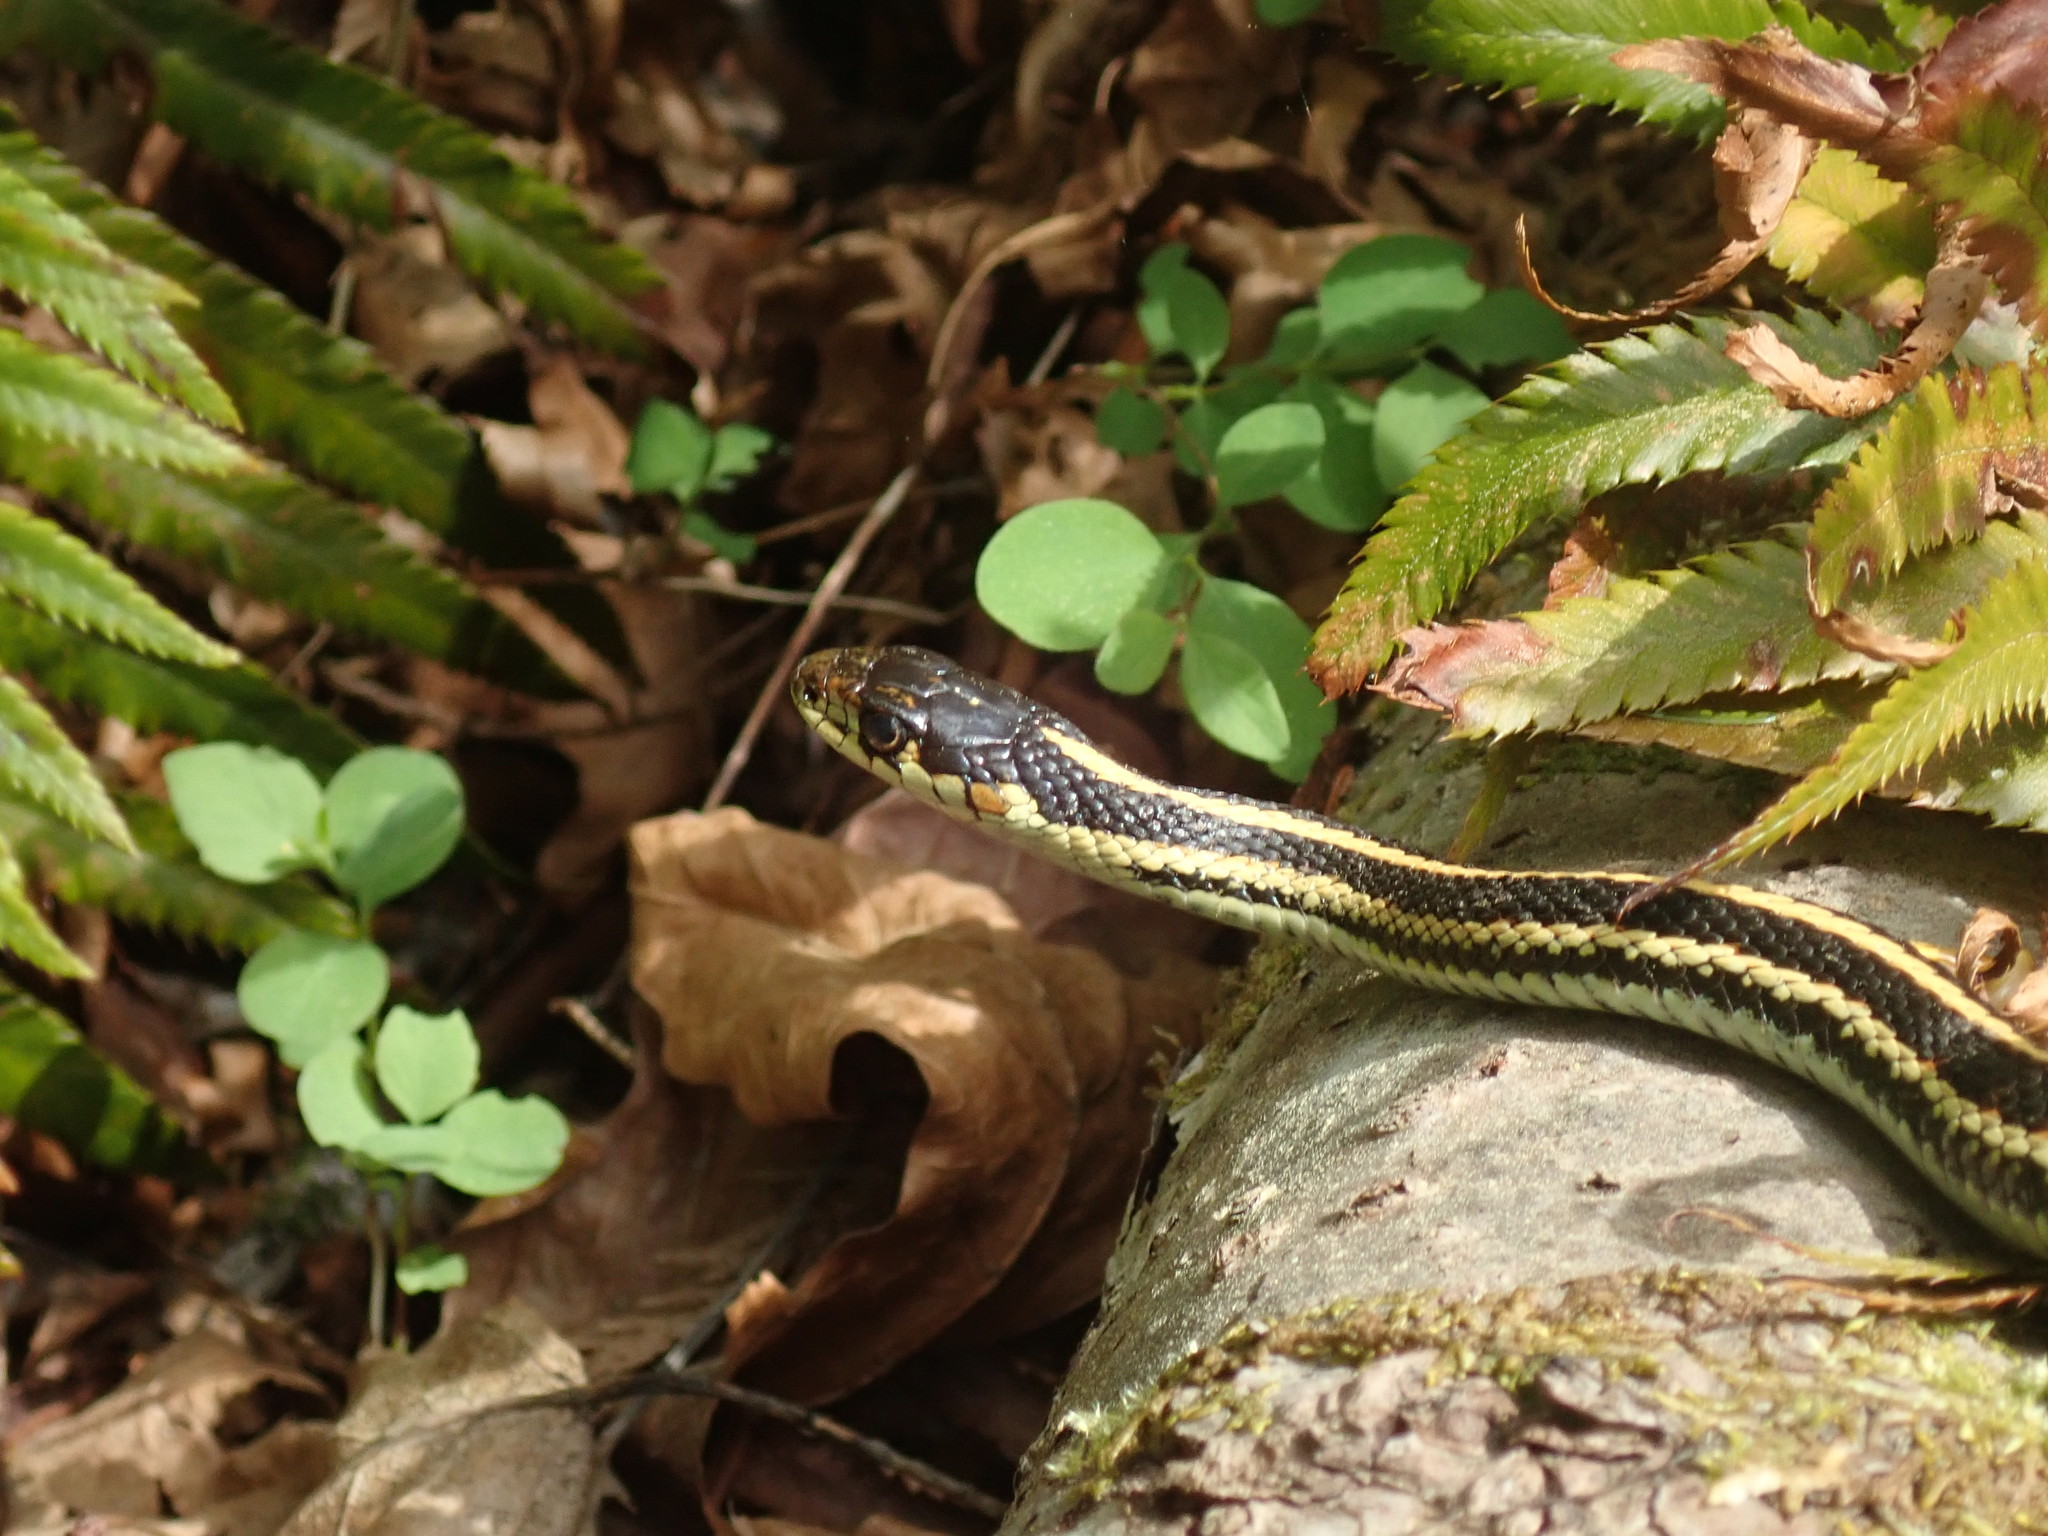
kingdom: Animalia
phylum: Chordata
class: Squamata
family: Colubridae
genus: Thamnophis
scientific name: Thamnophis sirtalis
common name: Common garter snake
